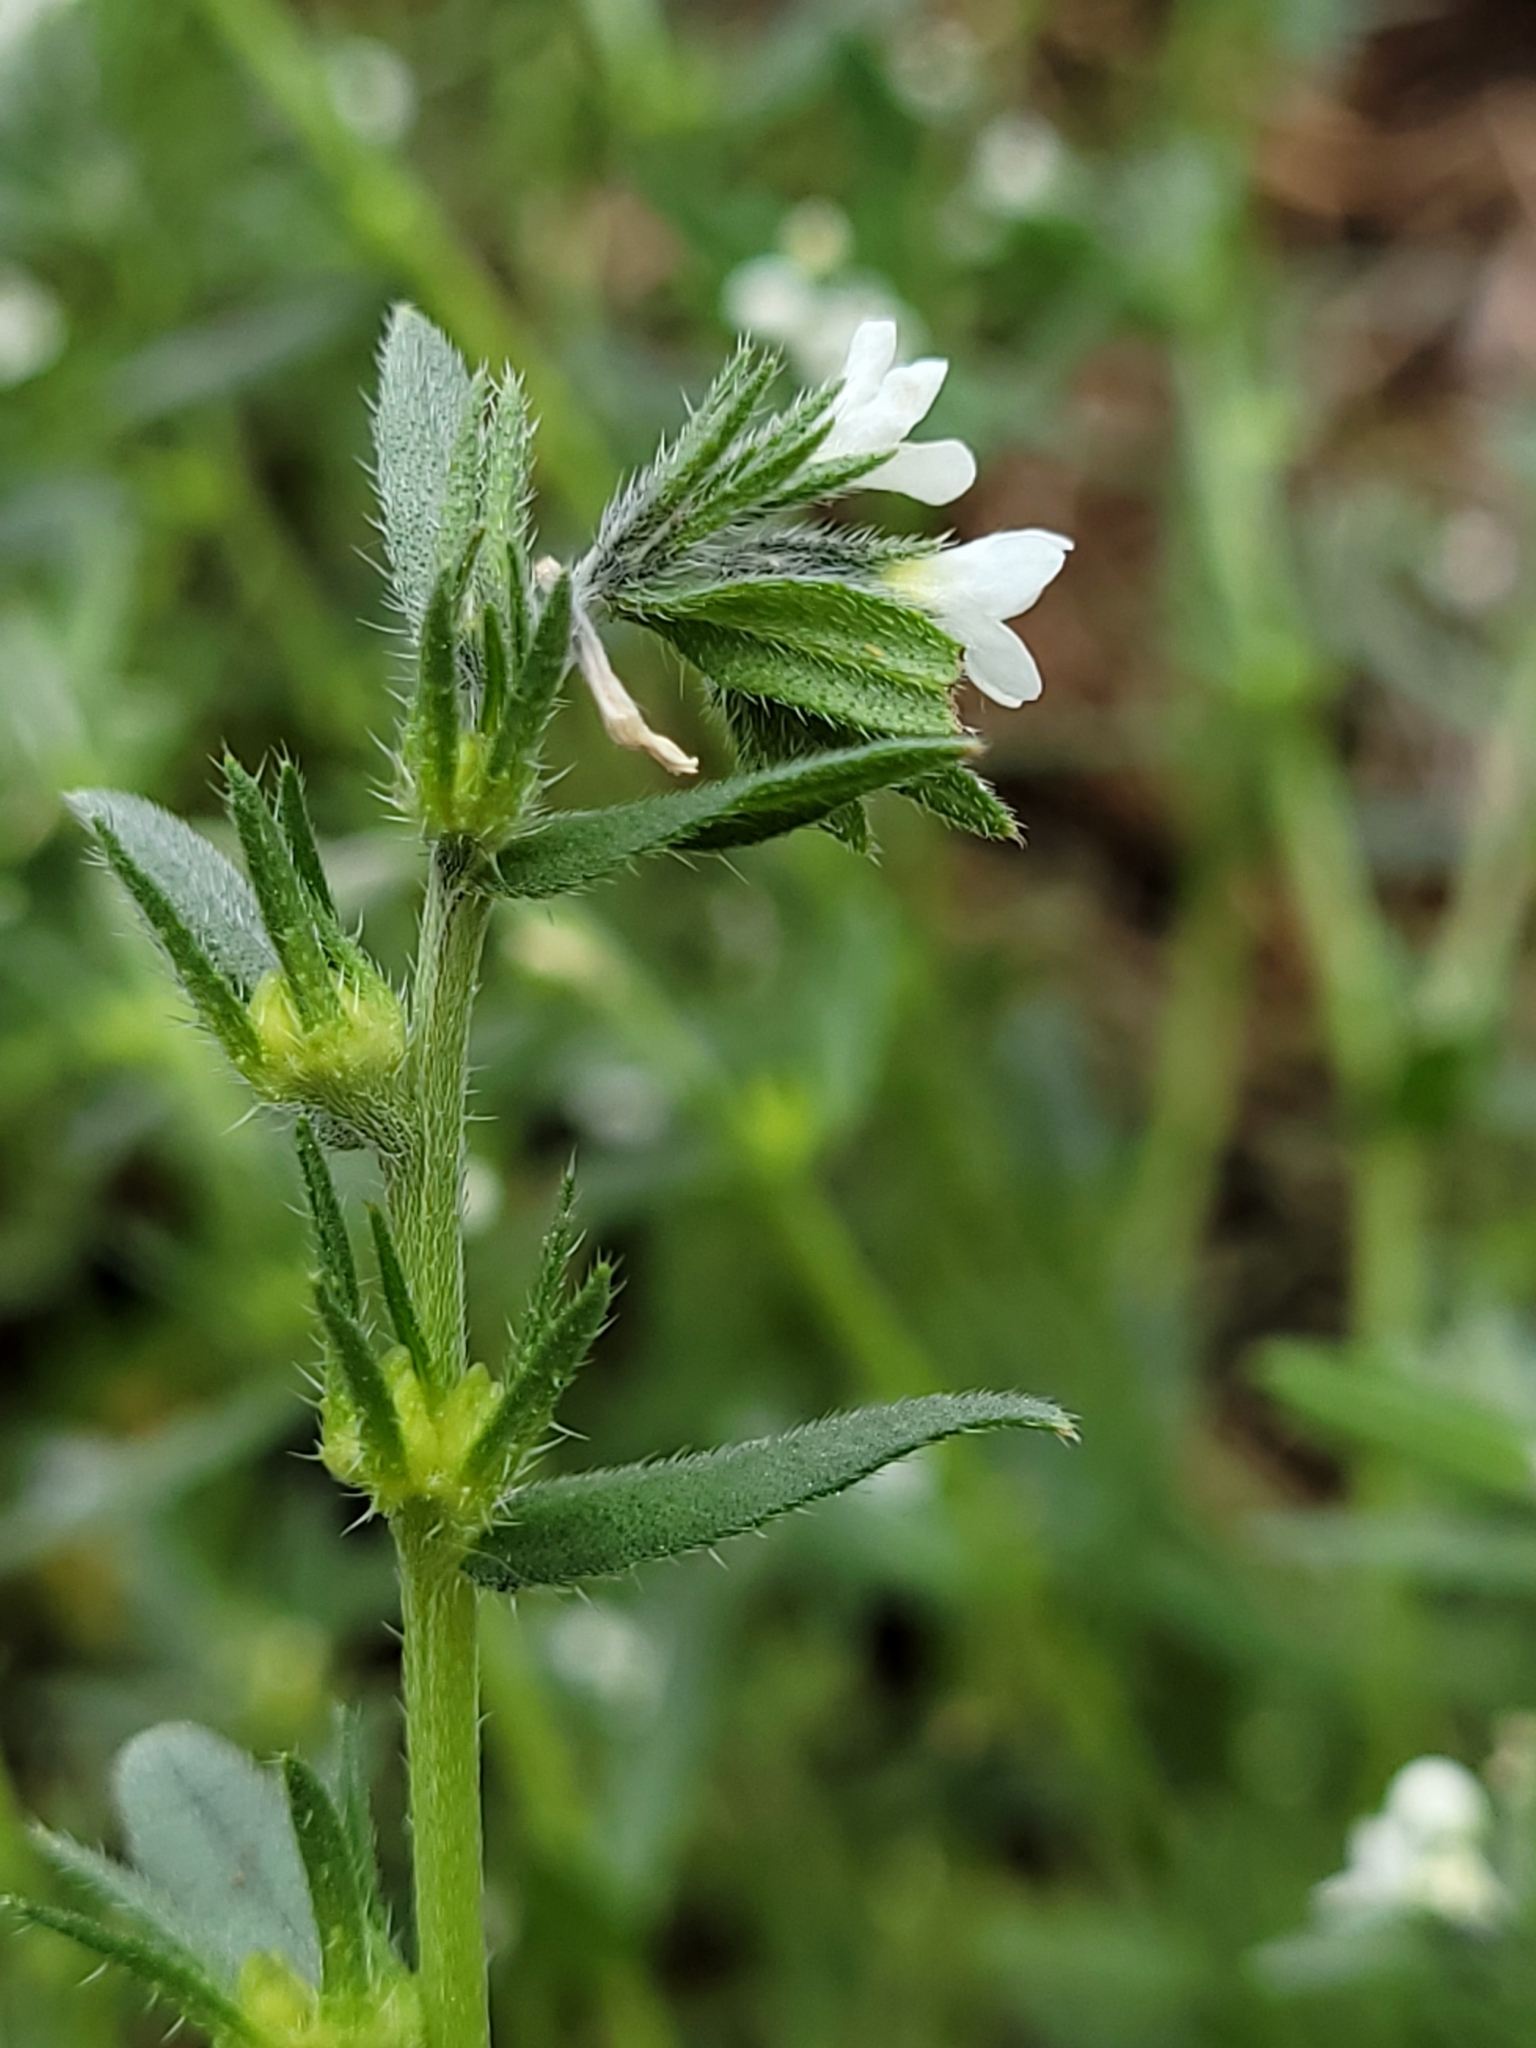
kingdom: Plantae
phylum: Tracheophyta
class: Magnoliopsida
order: Boraginales
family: Boraginaceae
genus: Buglossoides
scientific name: Buglossoides arvensis
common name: Corn gromwell
